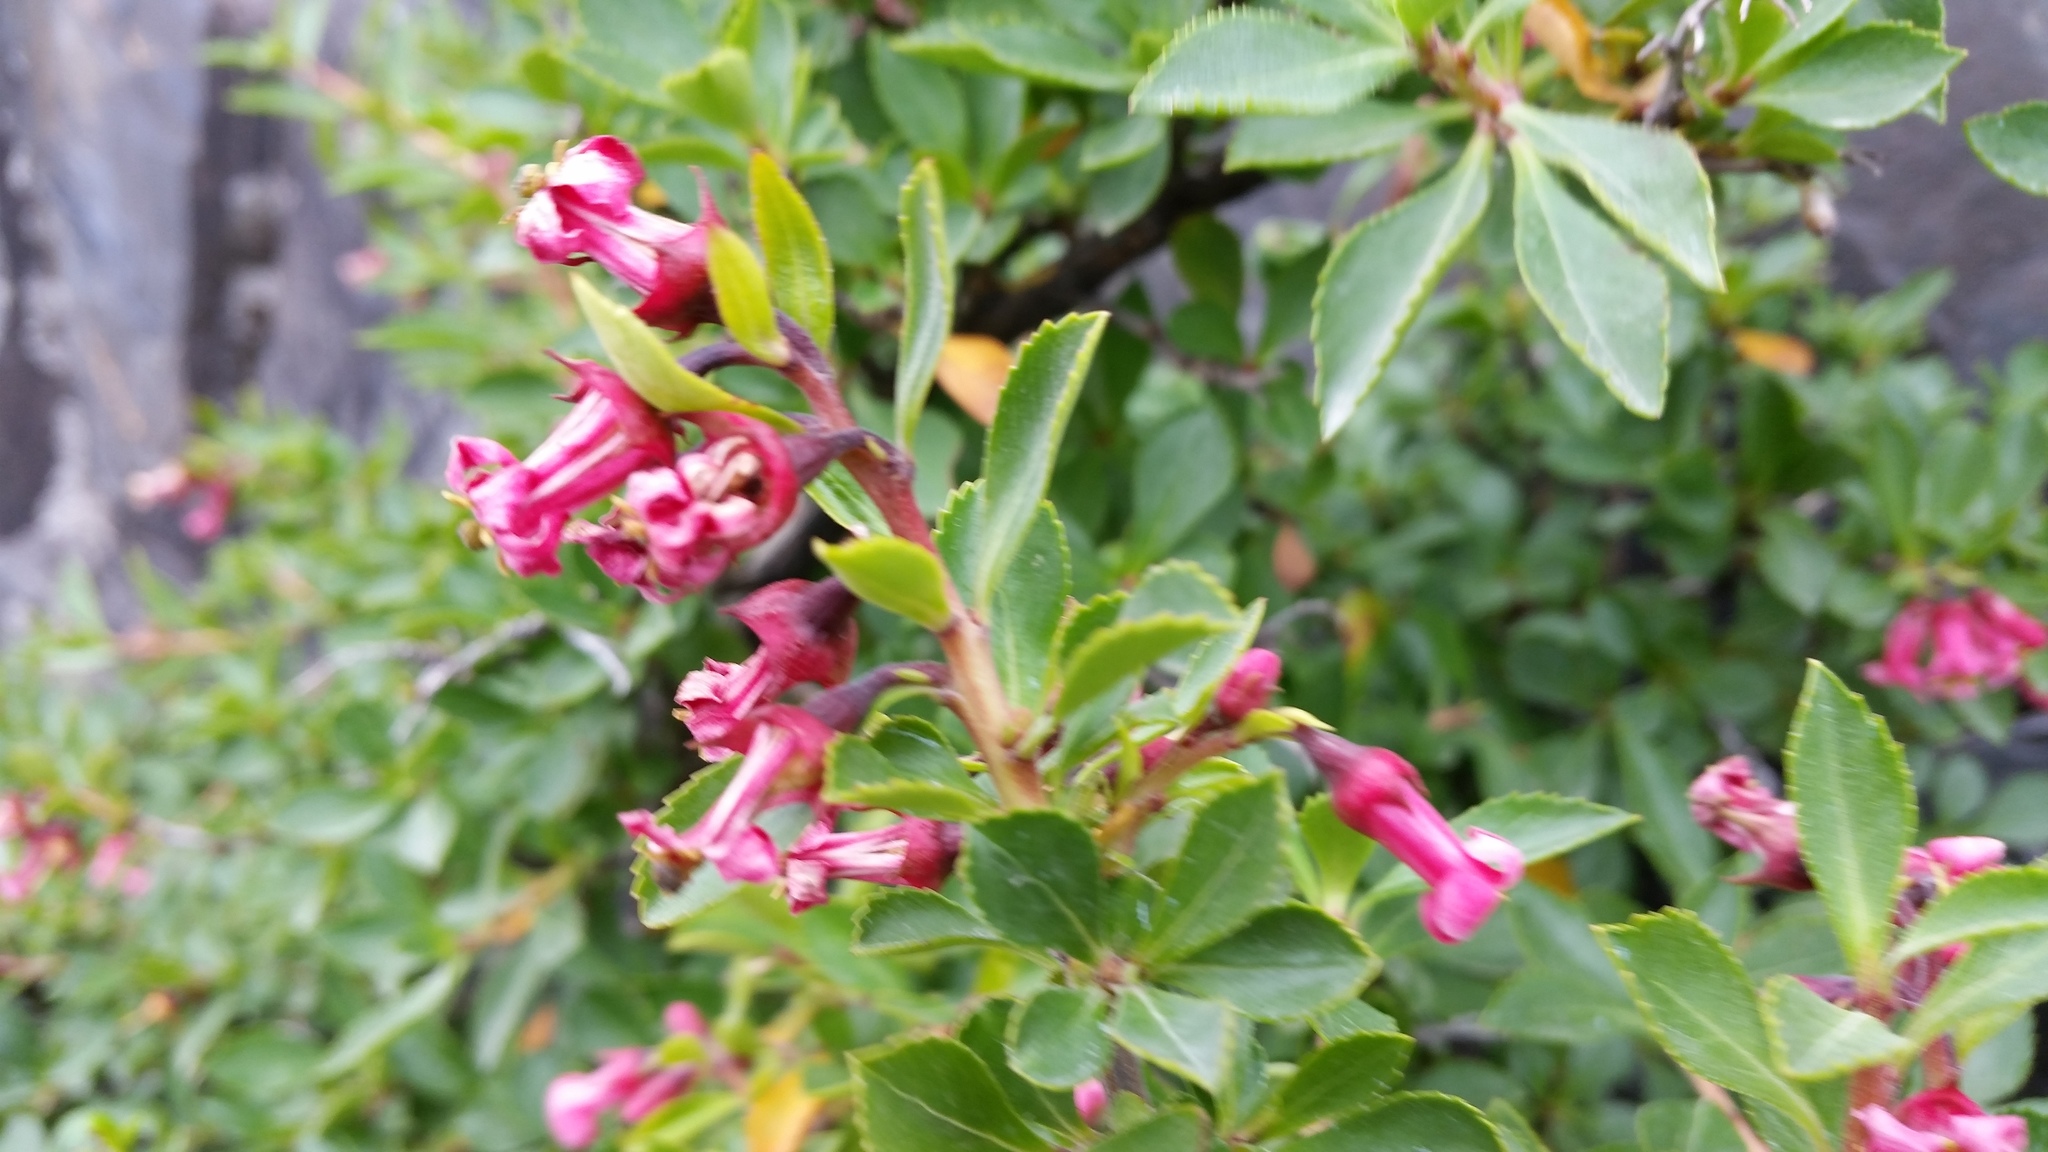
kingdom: Plantae
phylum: Tracheophyta
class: Magnoliopsida
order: Escalloniales
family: Escalloniaceae
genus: Escallonia
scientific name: Escallonia rubra
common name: Redclaws
